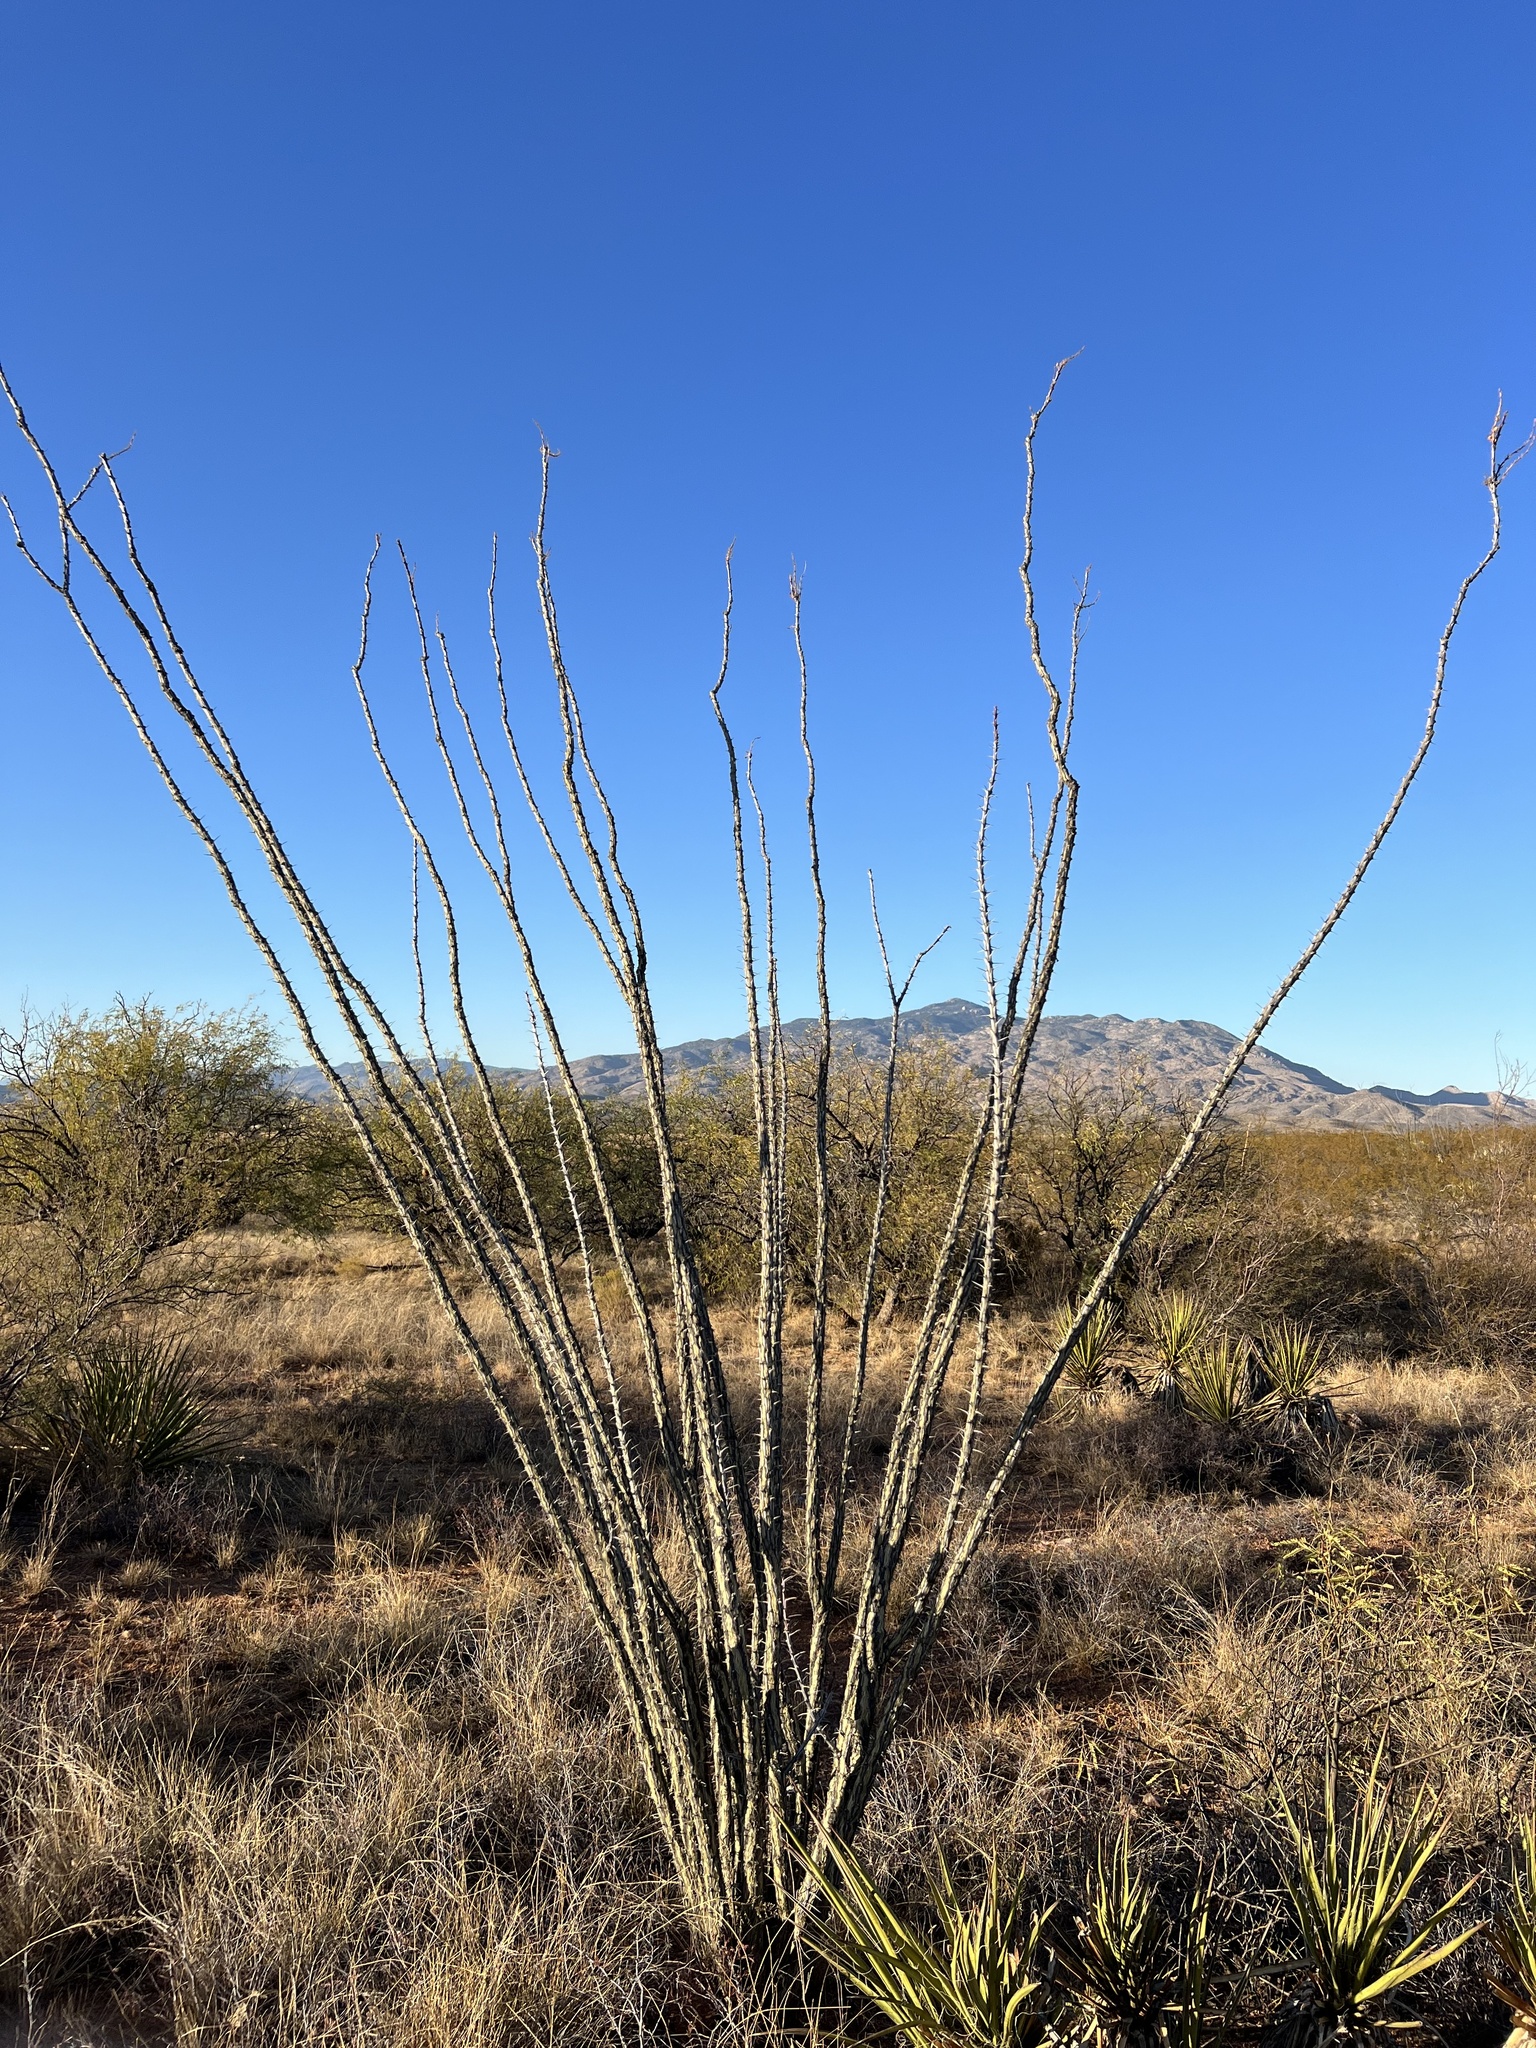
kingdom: Plantae
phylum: Tracheophyta
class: Magnoliopsida
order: Ericales
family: Fouquieriaceae
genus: Fouquieria
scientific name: Fouquieria splendens
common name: Vine-cactus
